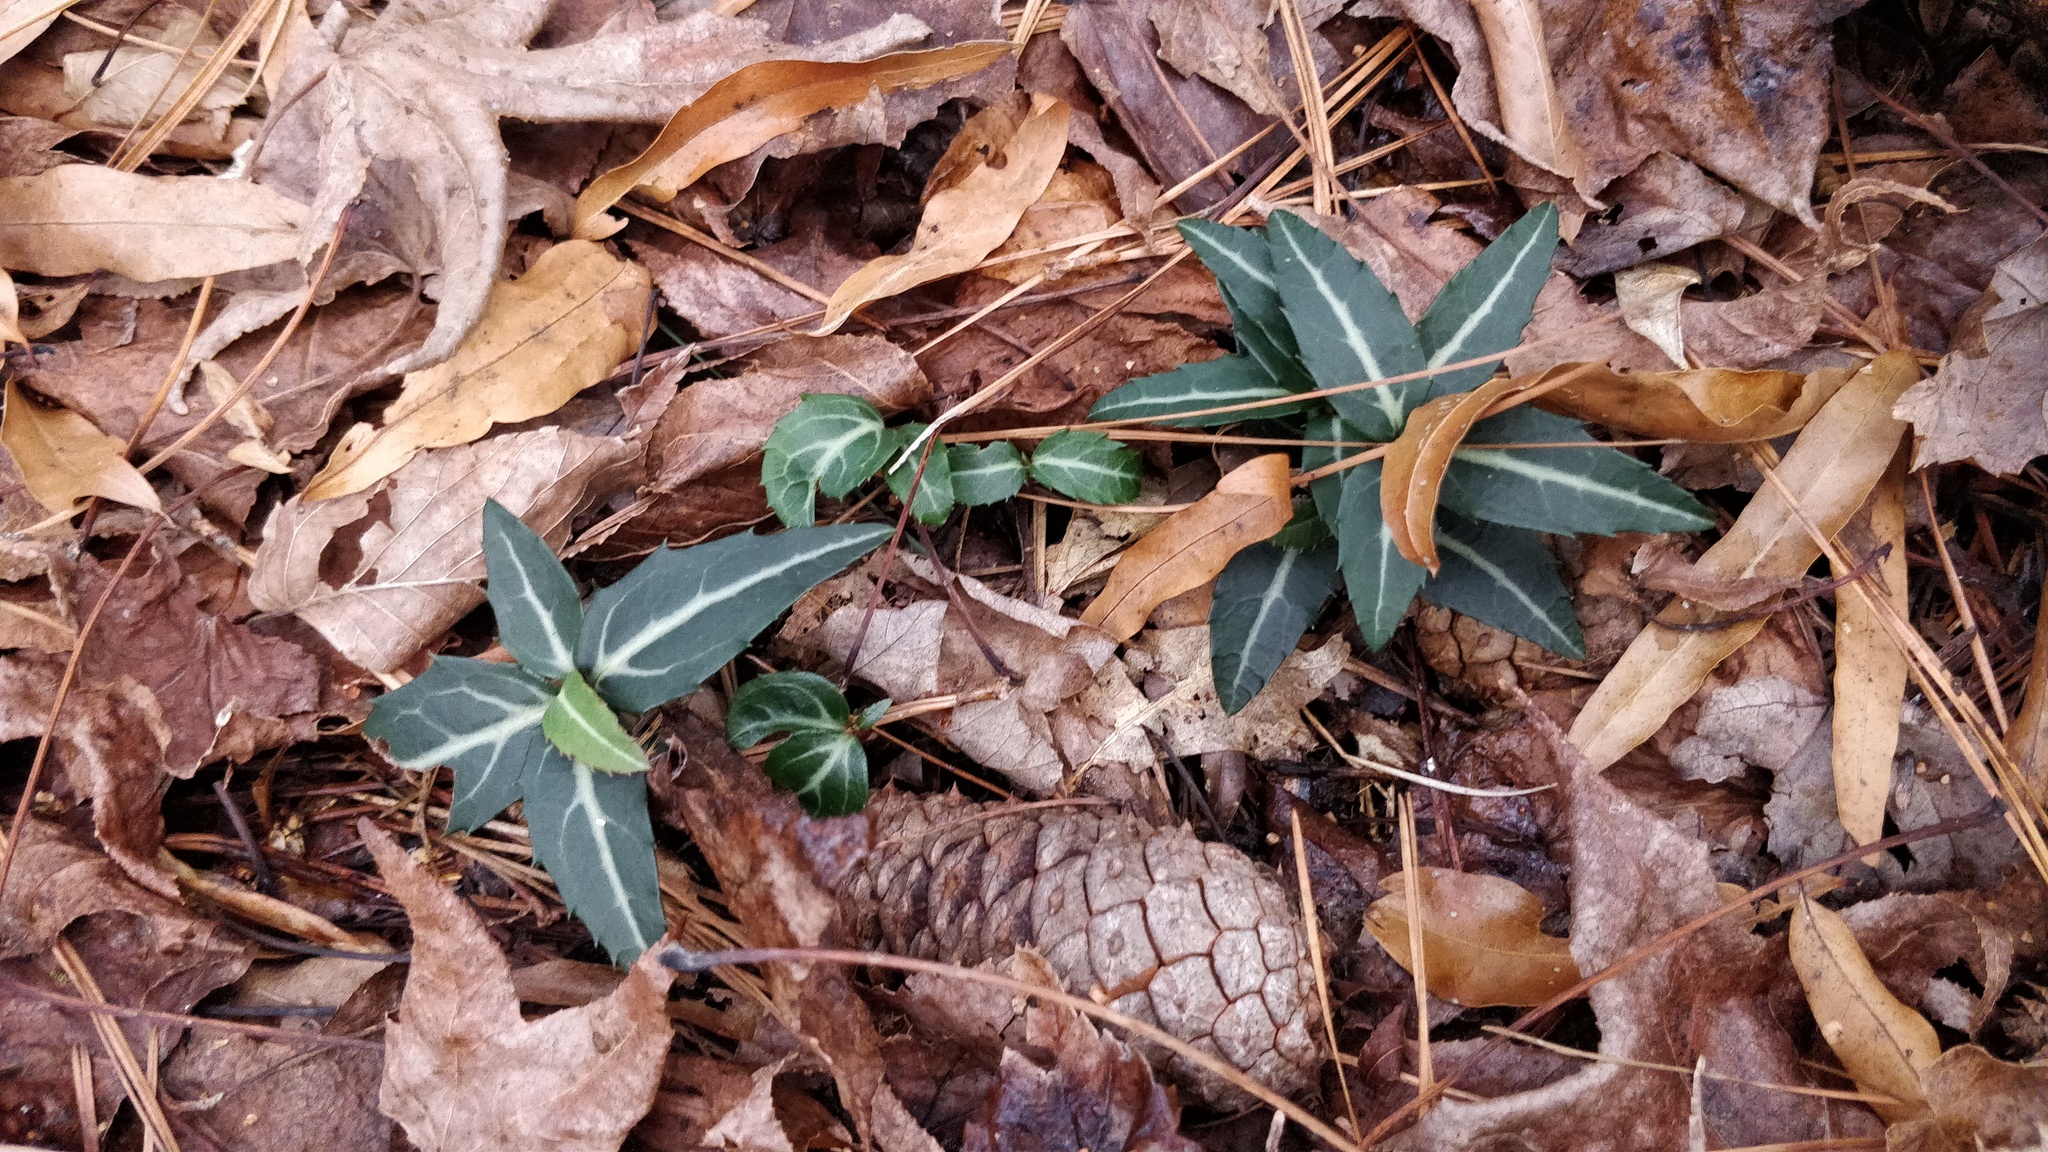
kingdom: Plantae
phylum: Tracheophyta
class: Magnoliopsida
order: Ericales
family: Ericaceae
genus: Chimaphila
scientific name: Chimaphila maculata
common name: Spotted pipsissewa
